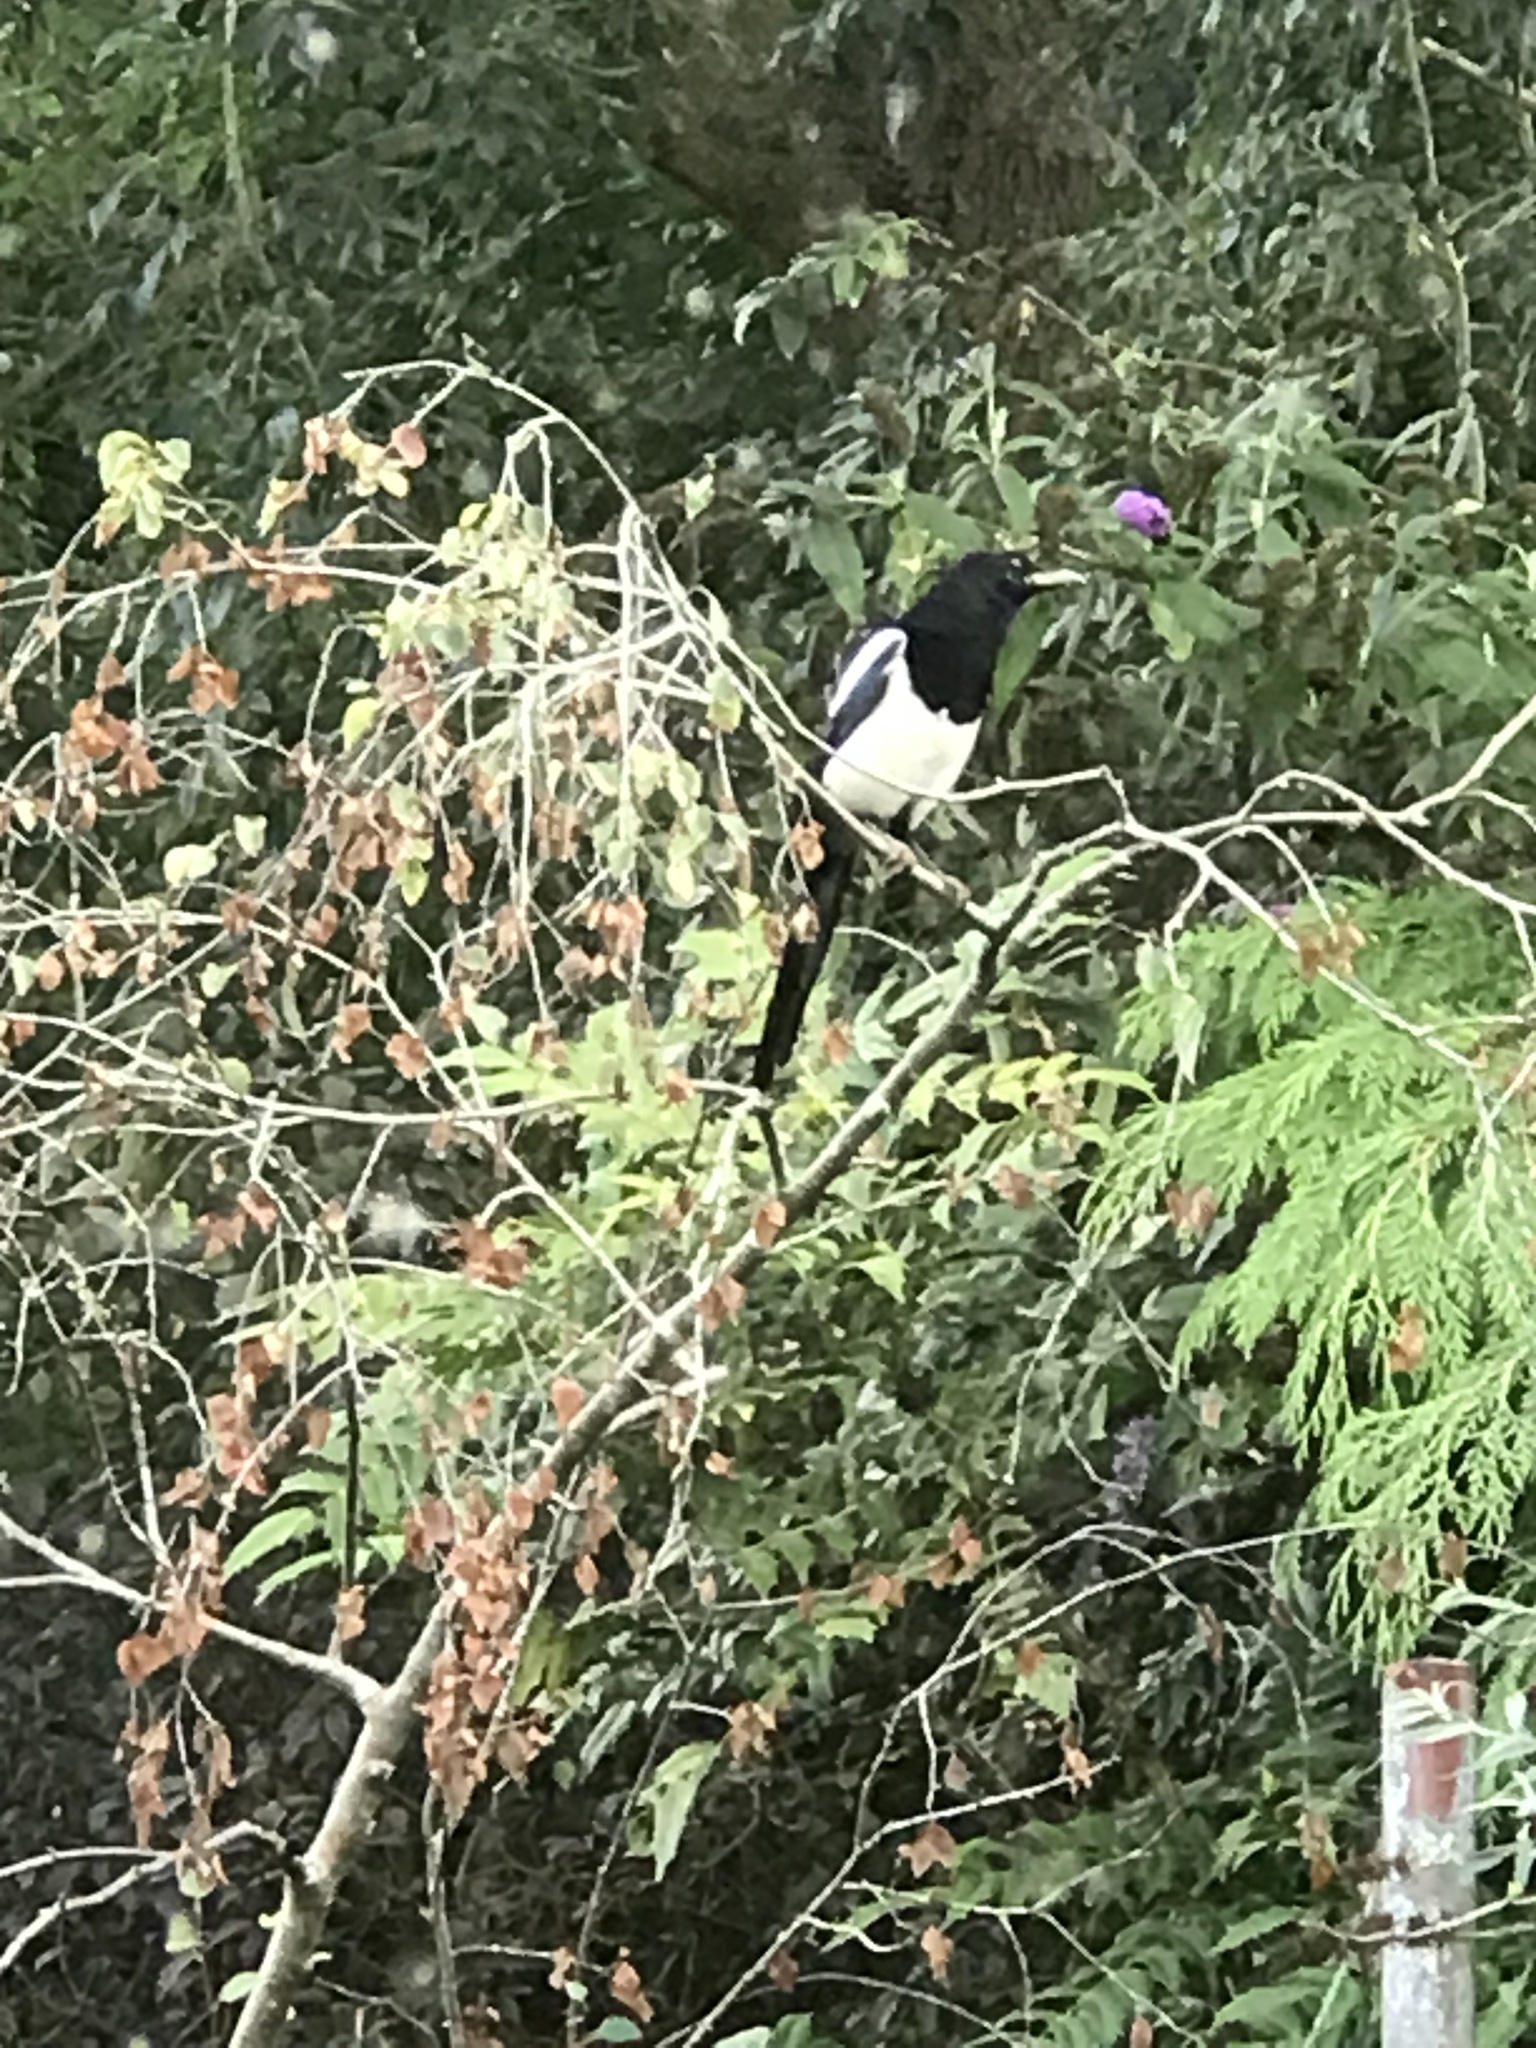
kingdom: Animalia
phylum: Chordata
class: Aves
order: Passeriformes
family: Corvidae
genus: Pica
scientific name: Pica pica
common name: Eurasian magpie
